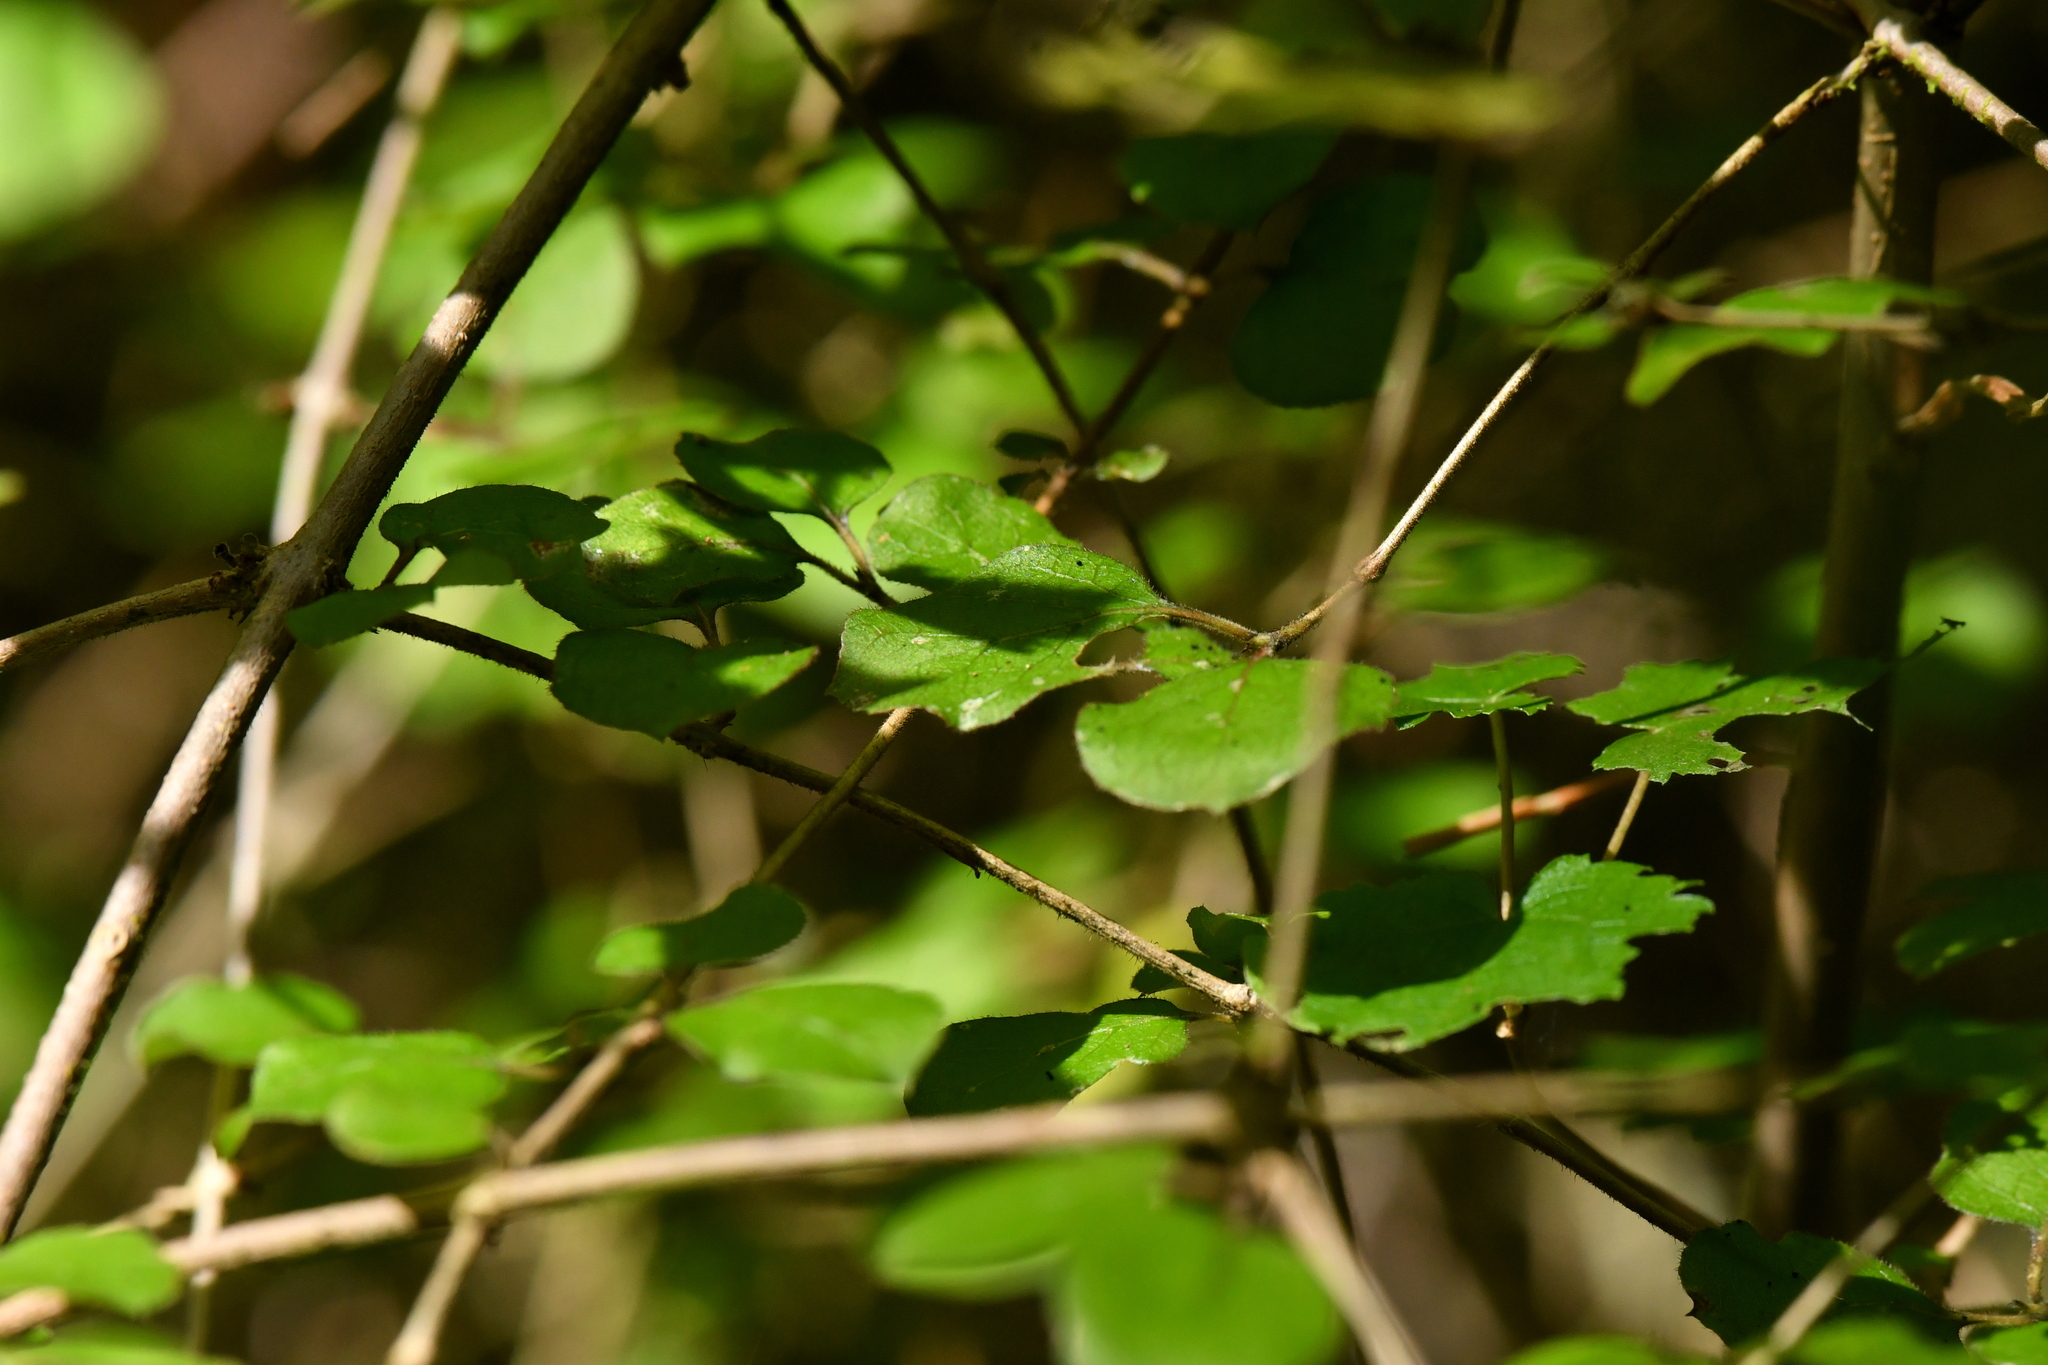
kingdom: Plantae
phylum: Tracheophyta
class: Magnoliopsida
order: Gentianales
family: Rubiaceae
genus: Coprosma
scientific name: Coprosma rotundifolia
